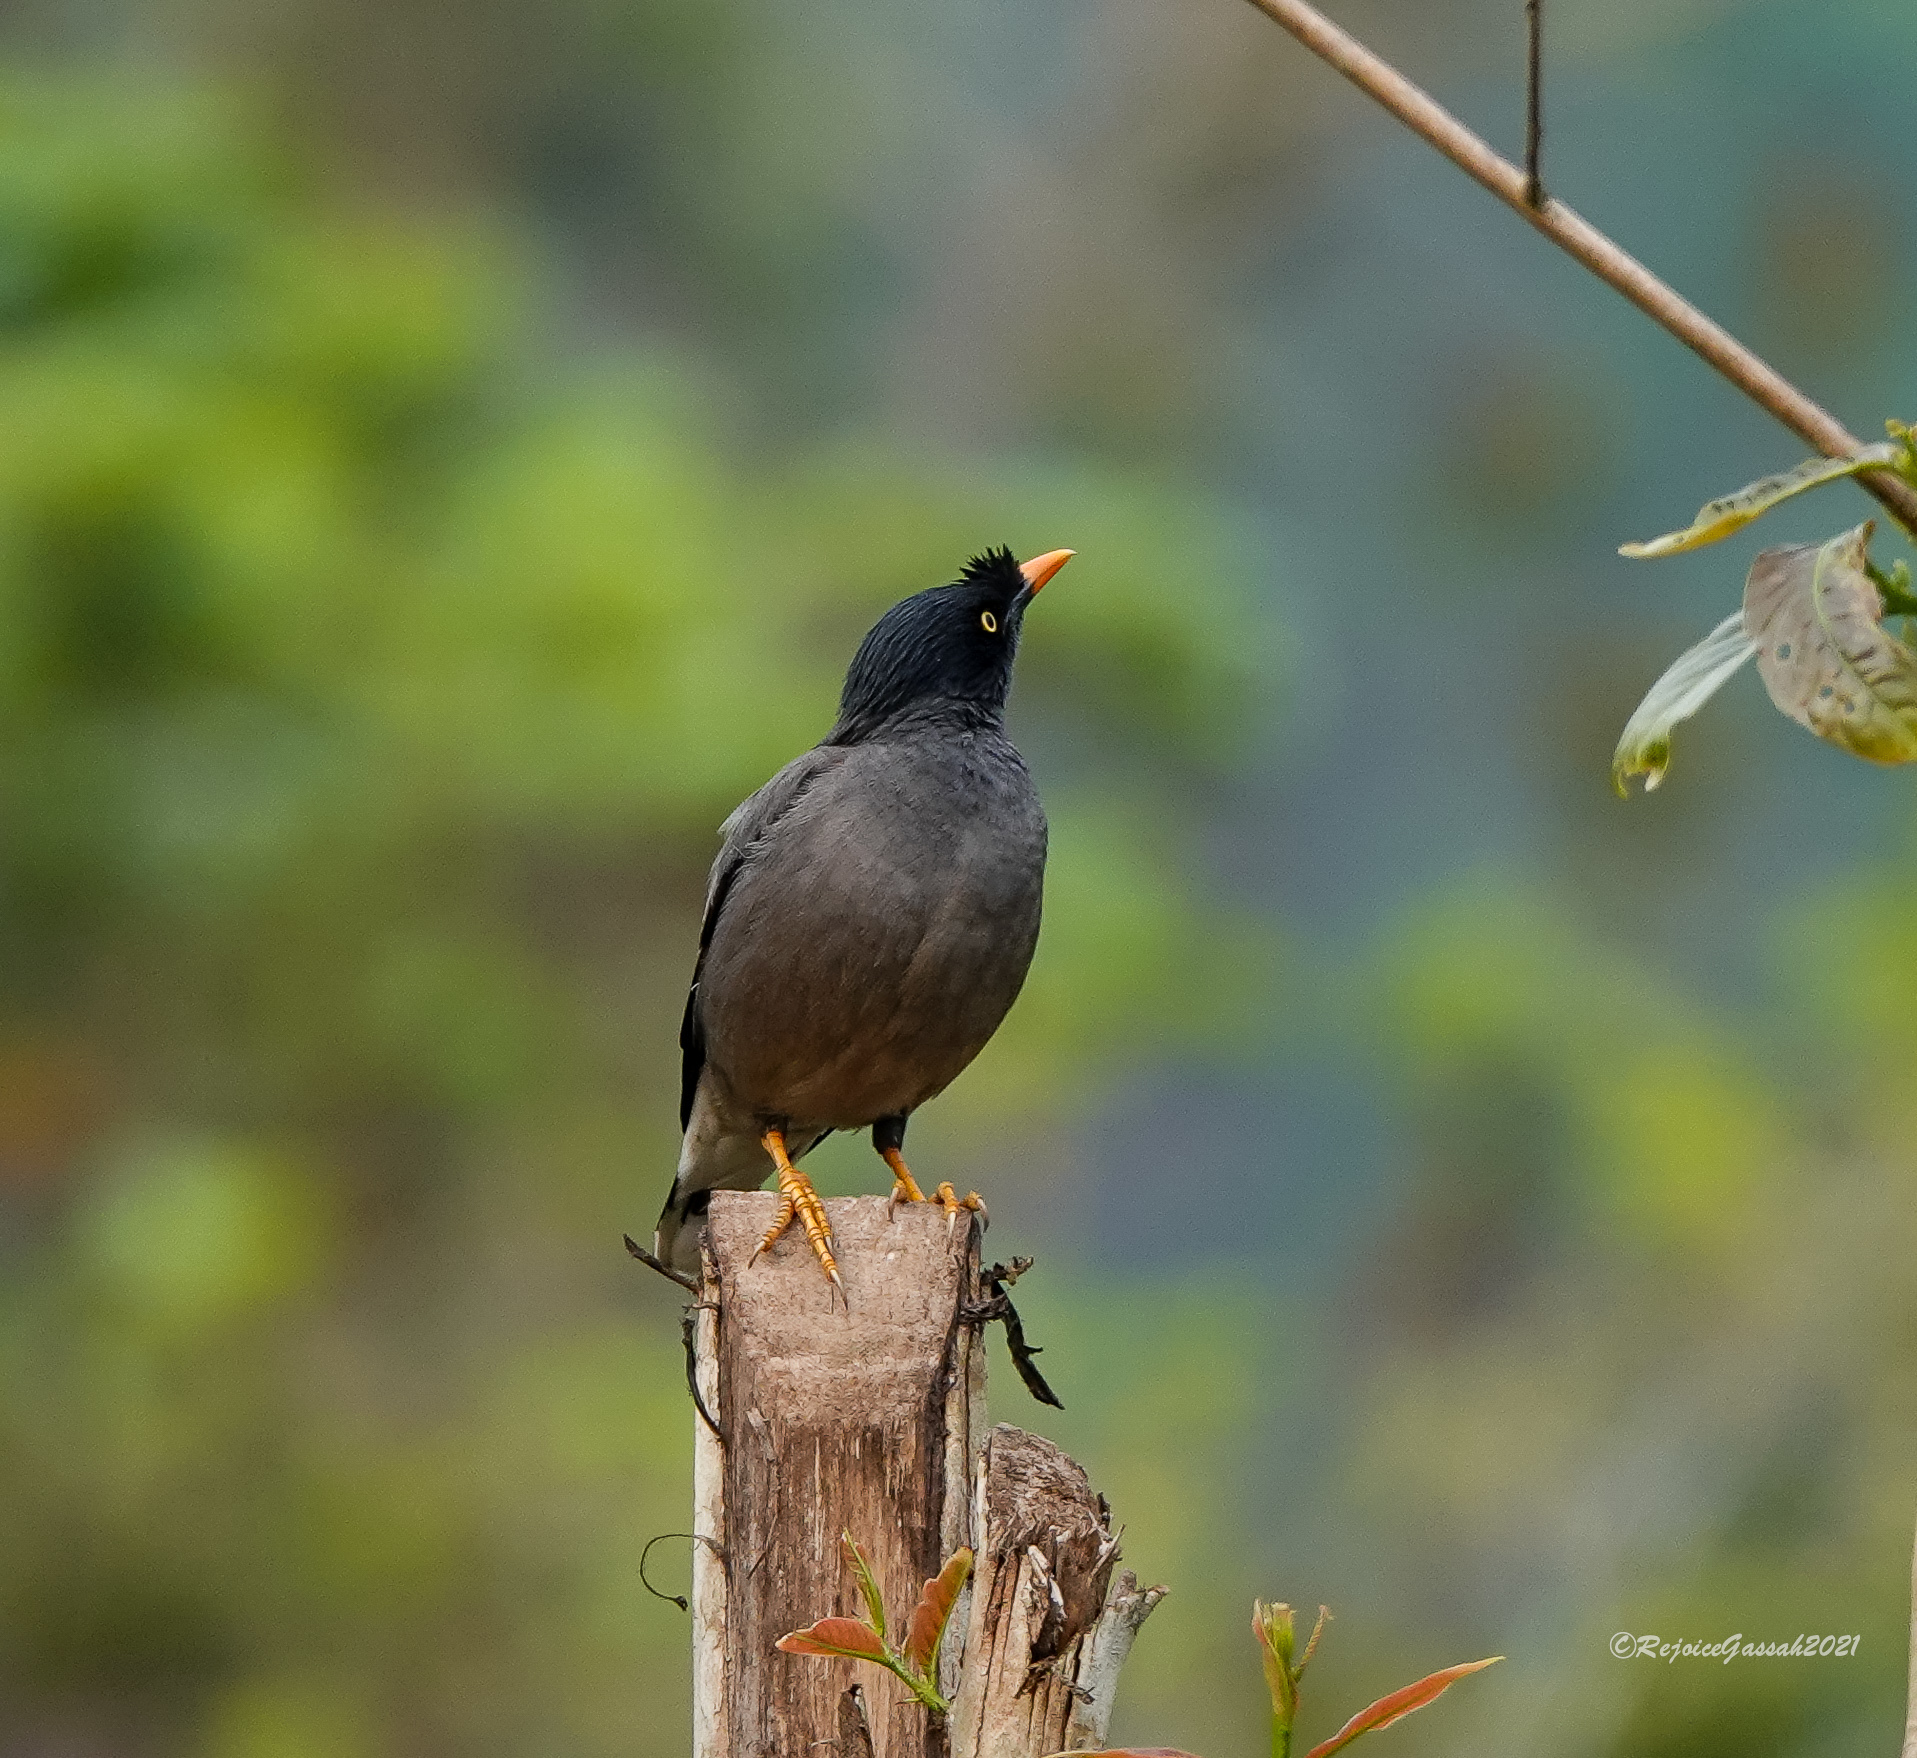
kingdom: Animalia
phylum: Chordata
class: Aves
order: Passeriformes
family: Sturnidae
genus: Acridotheres
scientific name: Acridotheres fuscus
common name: Jungle myna
